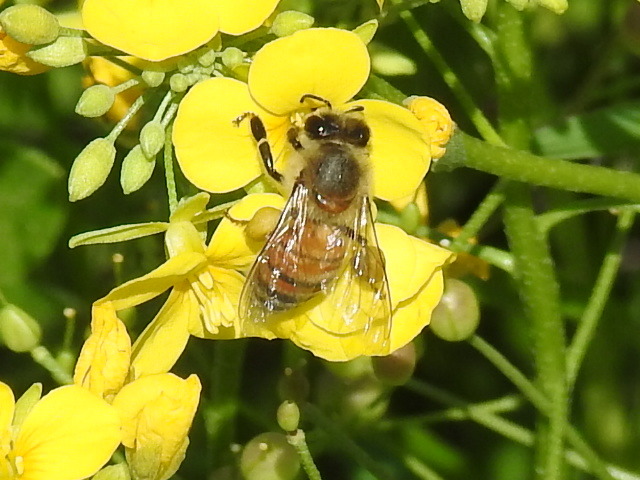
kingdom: Animalia
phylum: Arthropoda
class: Insecta
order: Hymenoptera
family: Apidae
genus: Apis
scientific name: Apis mellifera
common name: Honey bee
